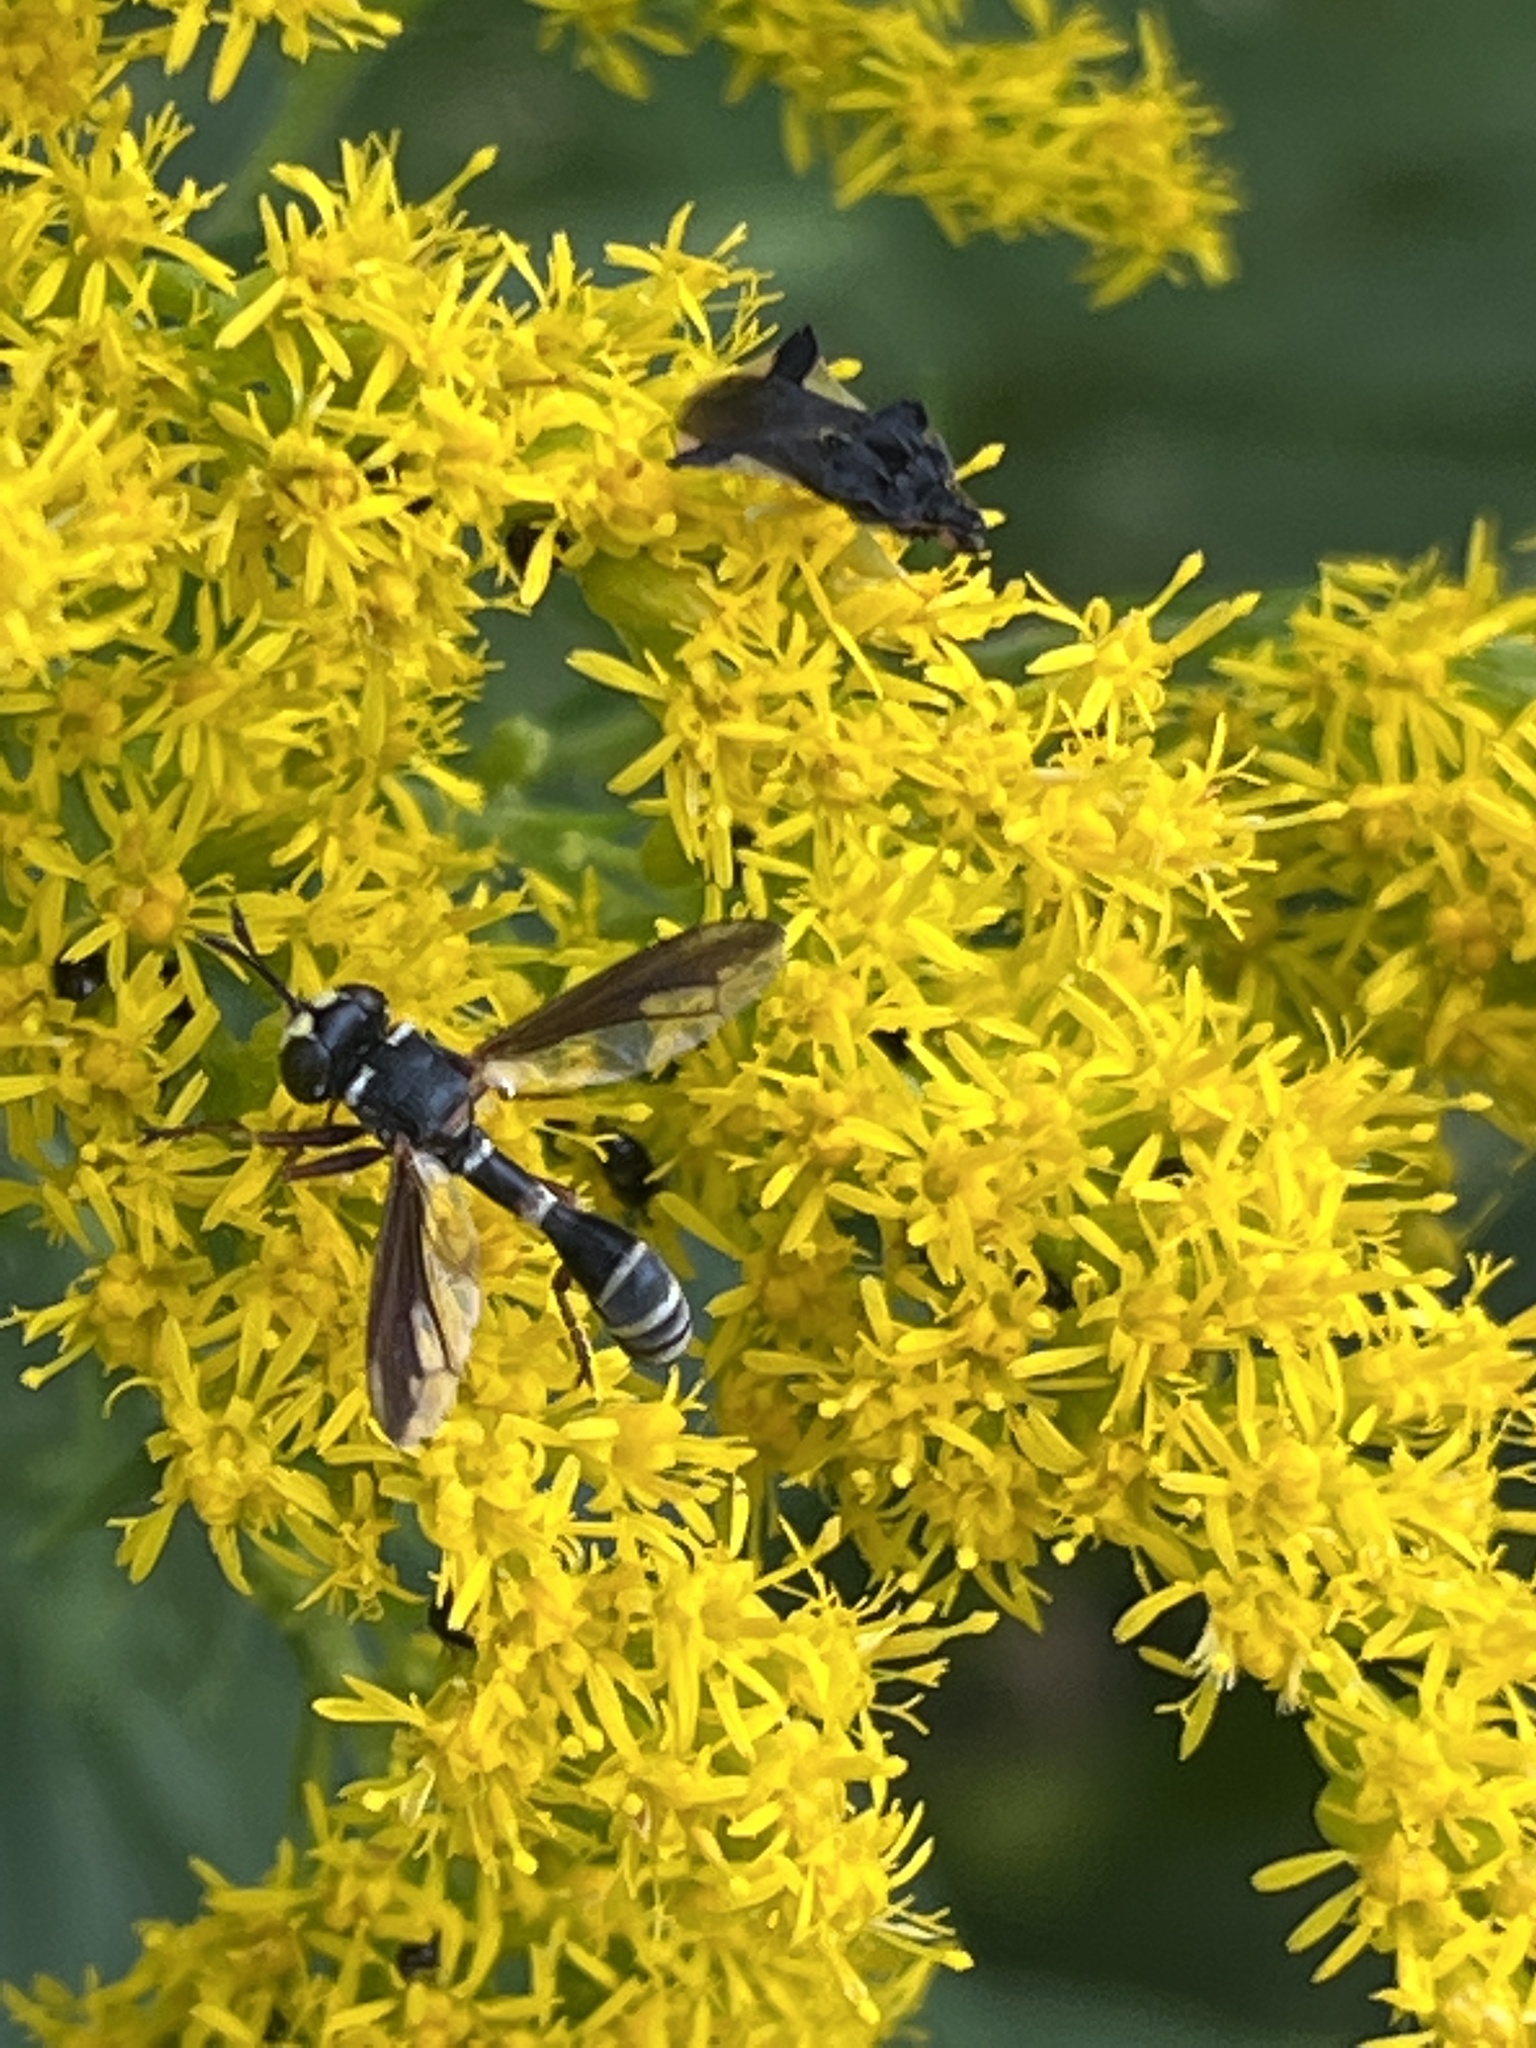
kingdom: Animalia
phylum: Arthropoda
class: Insecta
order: Diptera
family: Conopidae
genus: Physocephala
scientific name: Physocephala marginata
